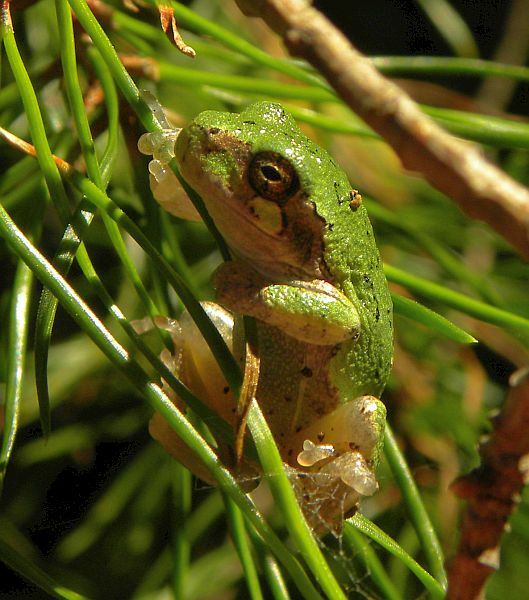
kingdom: Animalia
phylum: Chordata
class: Amphibia
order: Anura
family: Hylidae
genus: Dryophytes
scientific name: Dryophytes versicolor
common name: Gray treefrog
